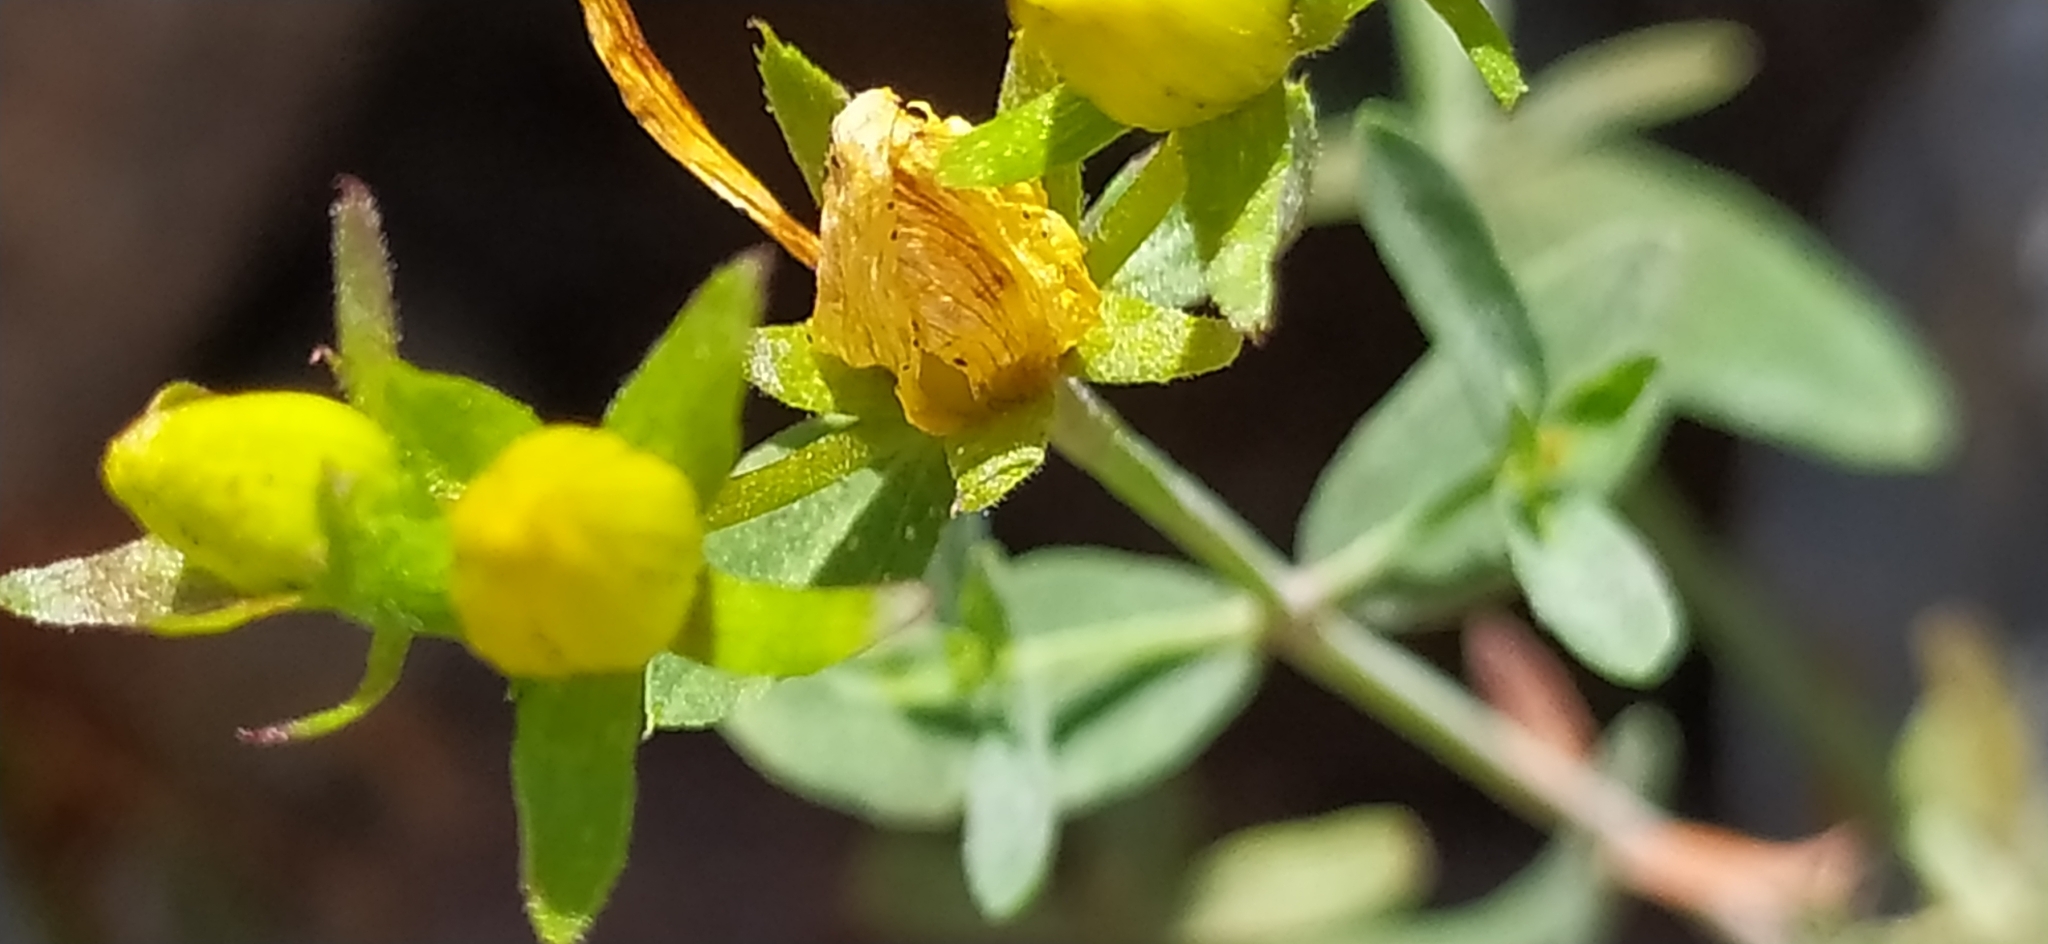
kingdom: Plantae
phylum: Tracheophyta
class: Magnoliopsida
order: Malpighiales
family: Hypericaceae
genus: Hypericum
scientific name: Hypericum perforatum
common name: Common st. johnswort
